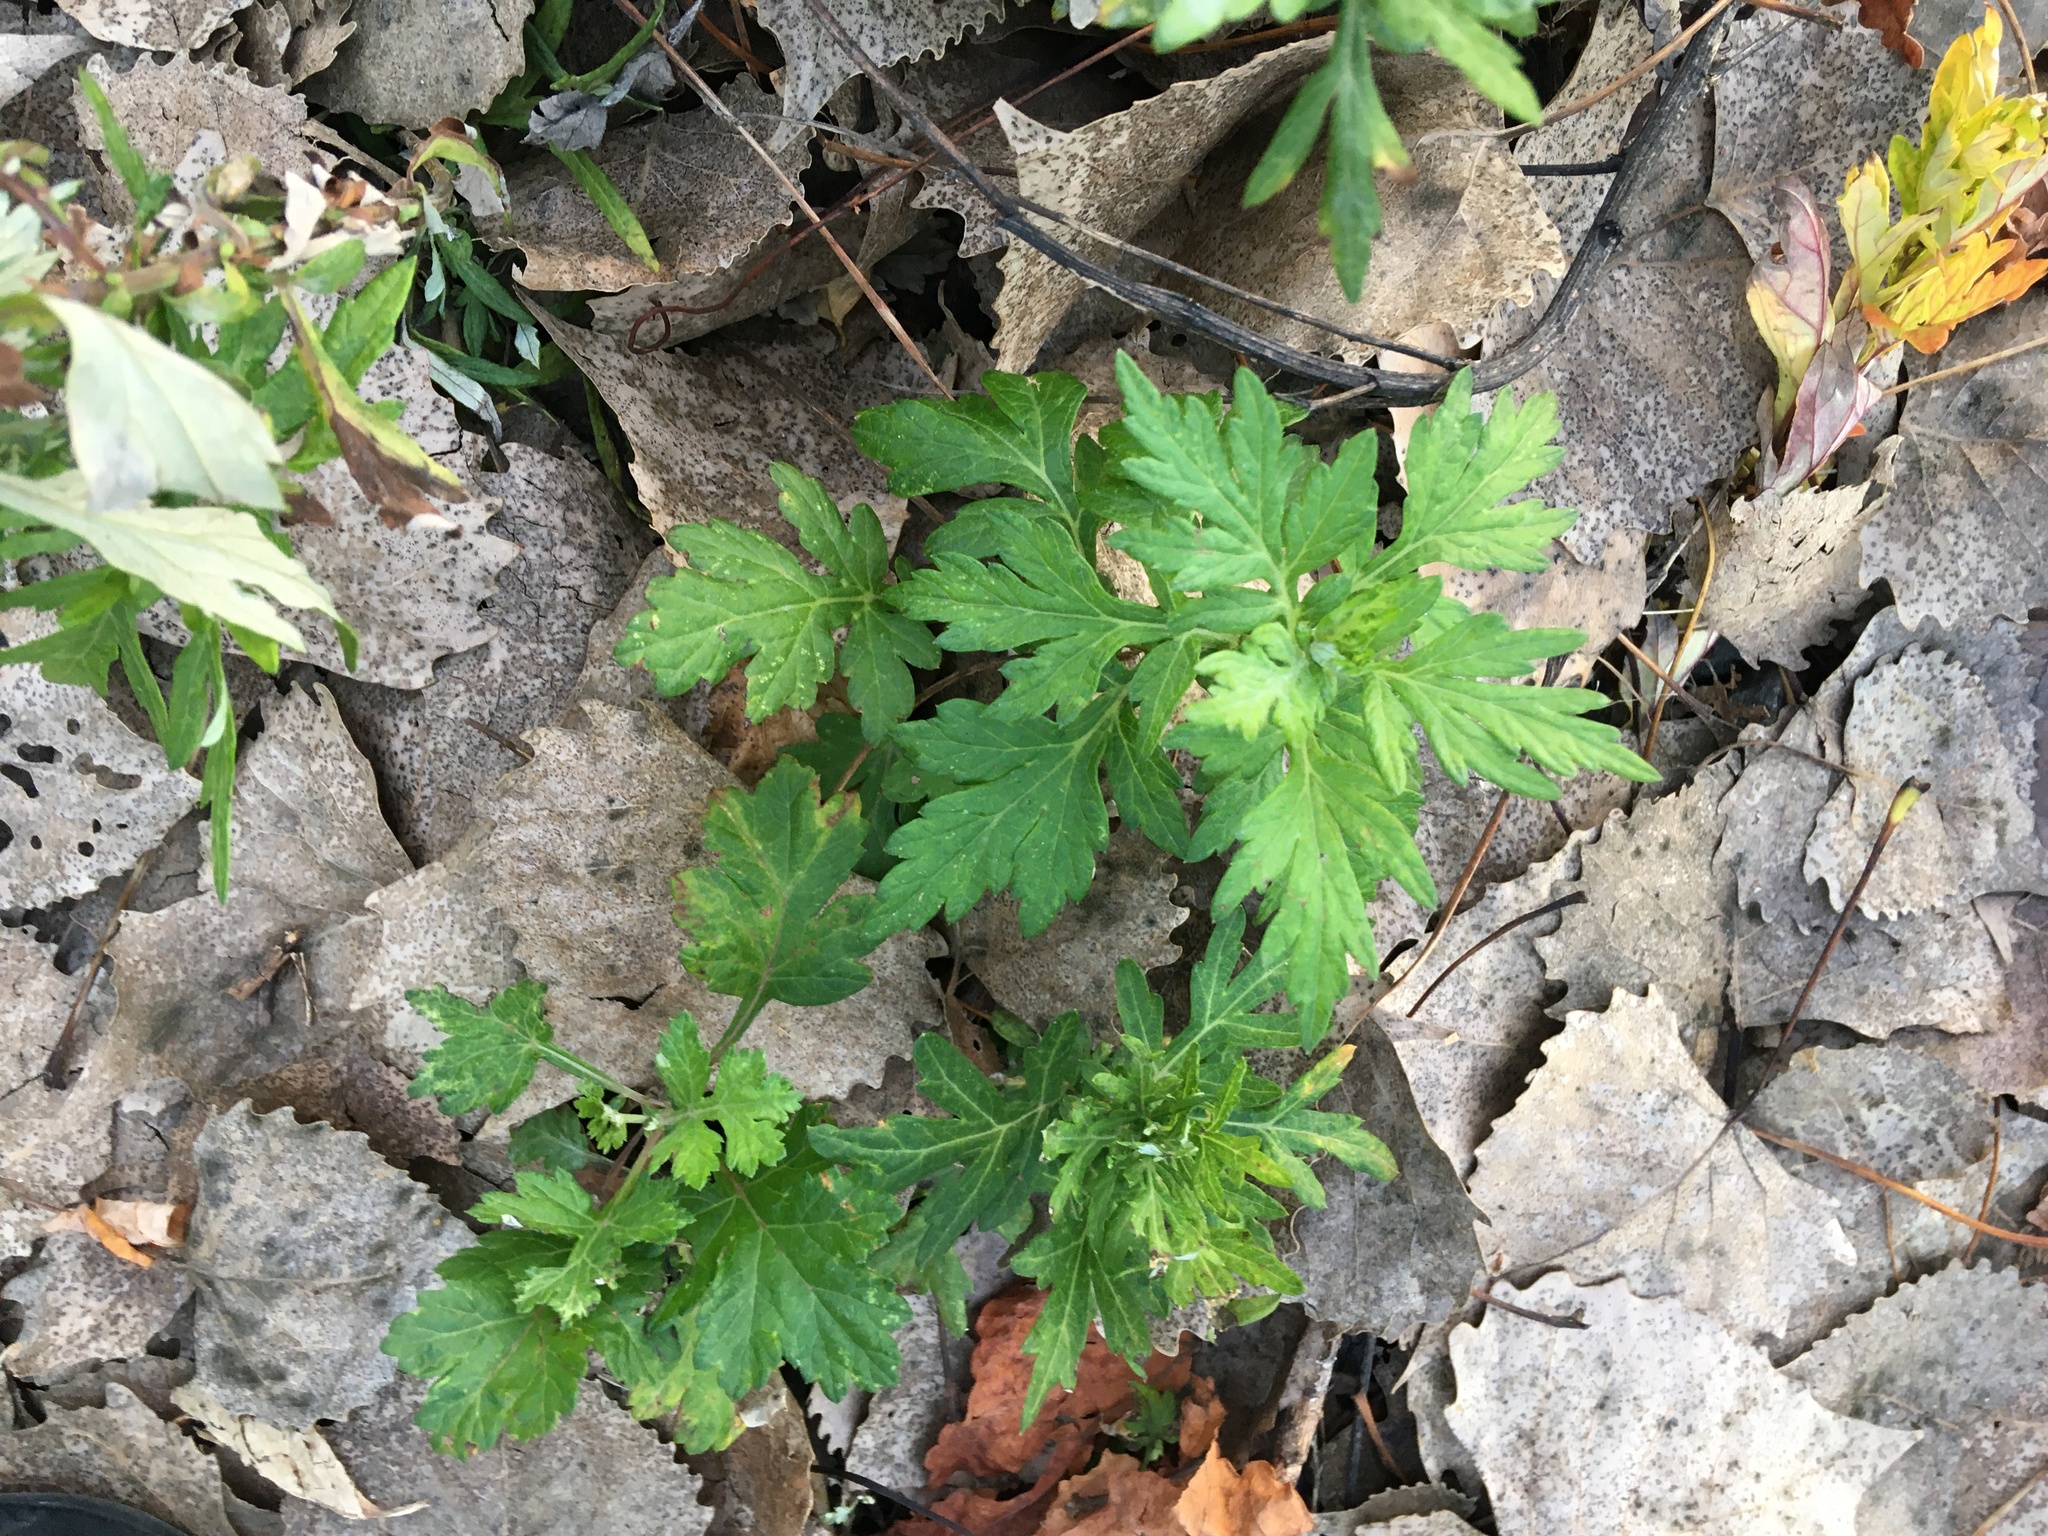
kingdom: Plantae
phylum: Tracheophyta
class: Magnoliopsida
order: Asterales
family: Asteraceae
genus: Artemisia
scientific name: Artemisia vulgaris
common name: Mugwort
